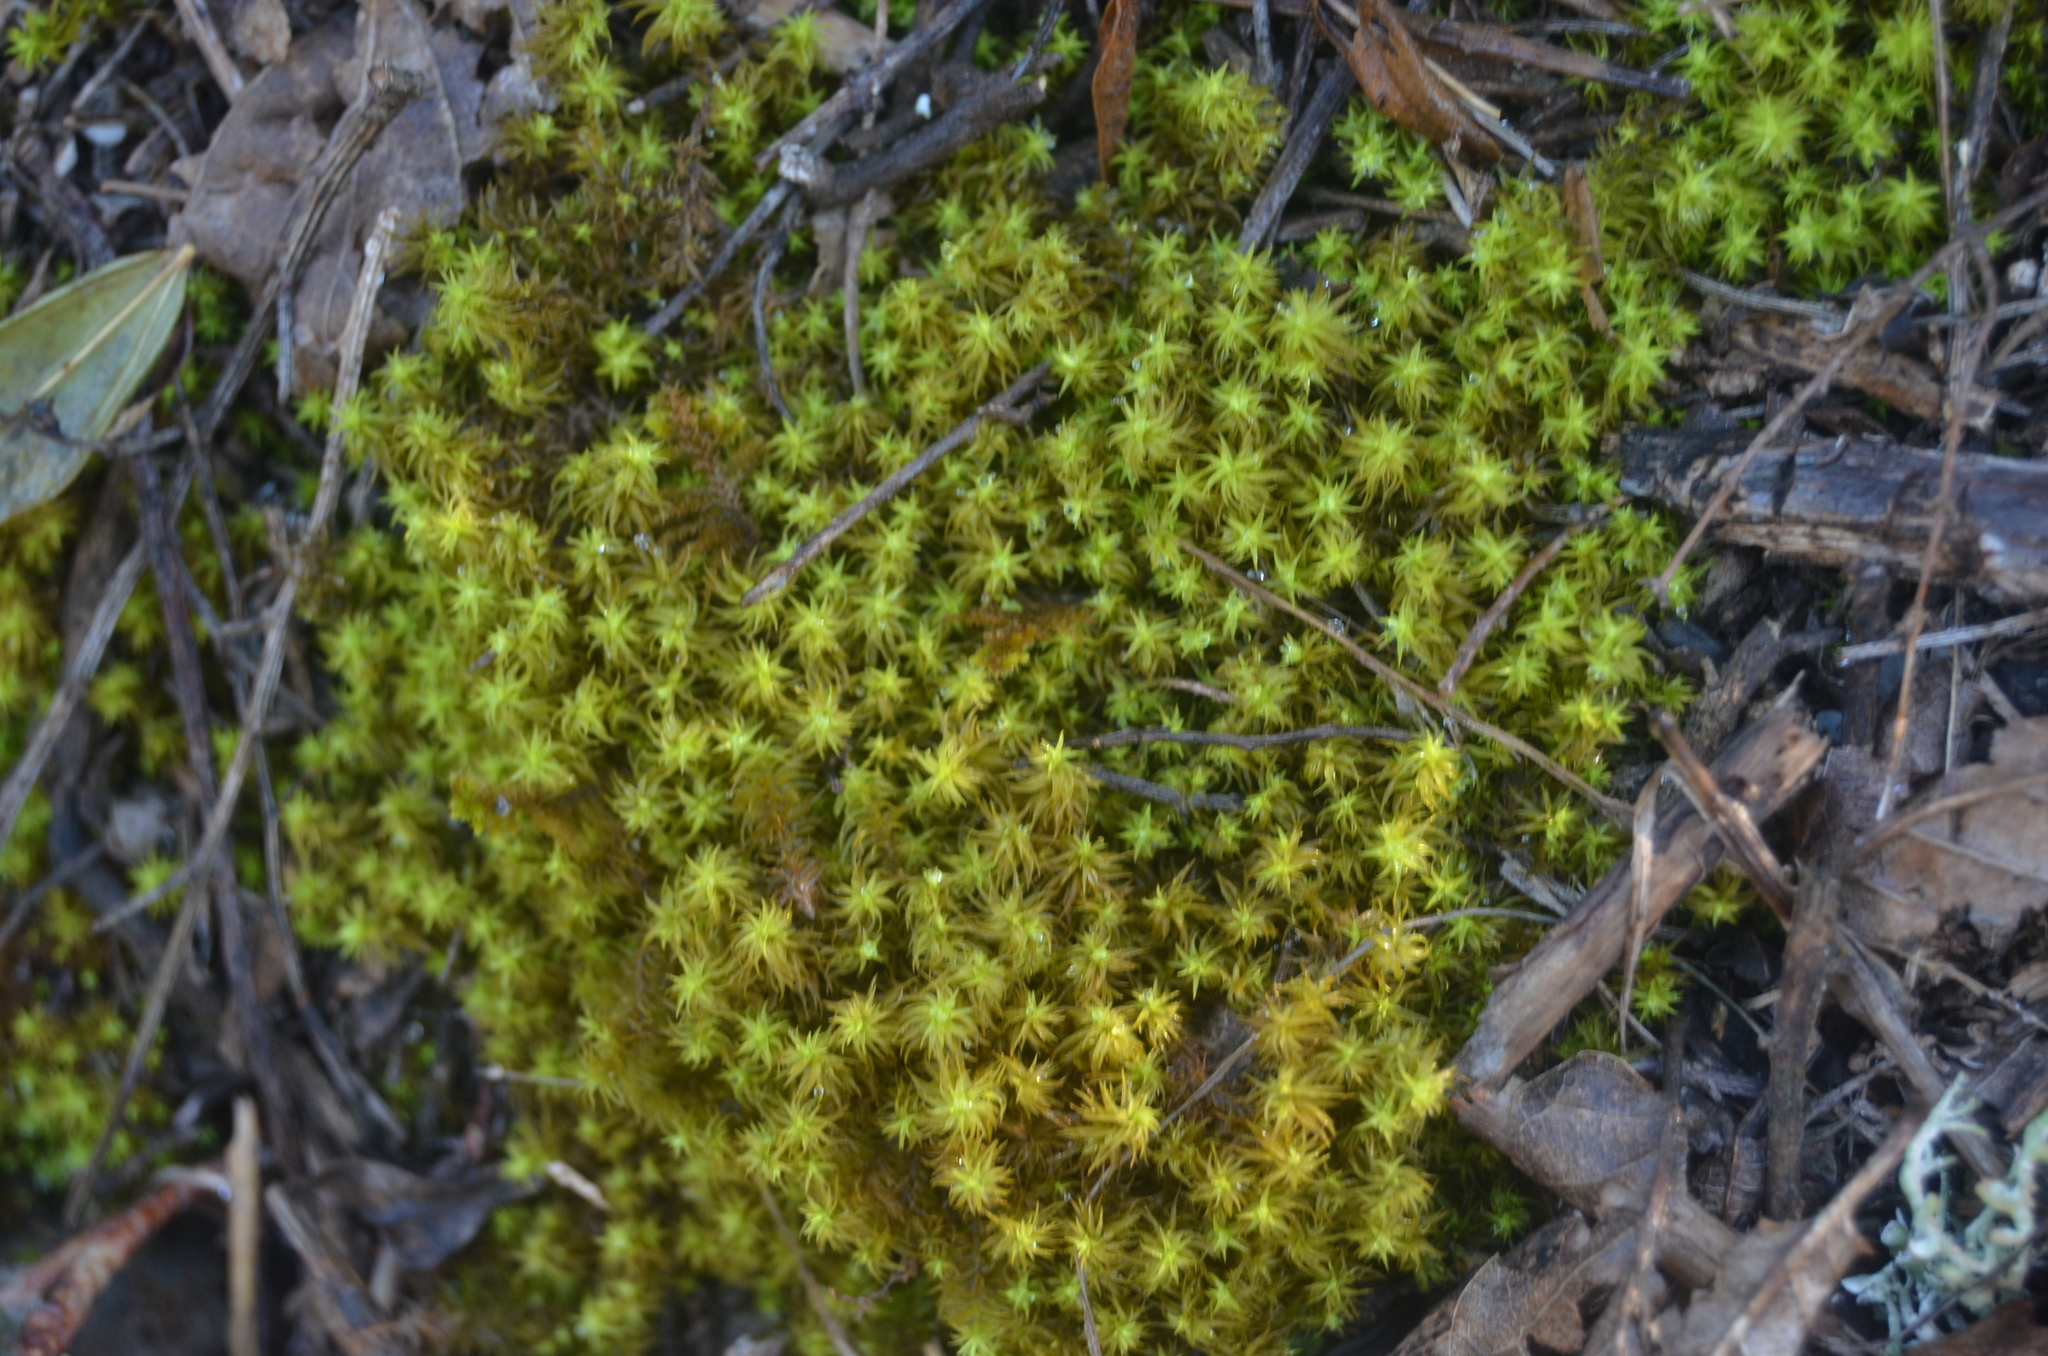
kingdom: Plantae
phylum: Bryophyta
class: Bryopsida
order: Pottiales
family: Pottiaceae
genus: Pleurochaete
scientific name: Pleurochaete squarrosa
